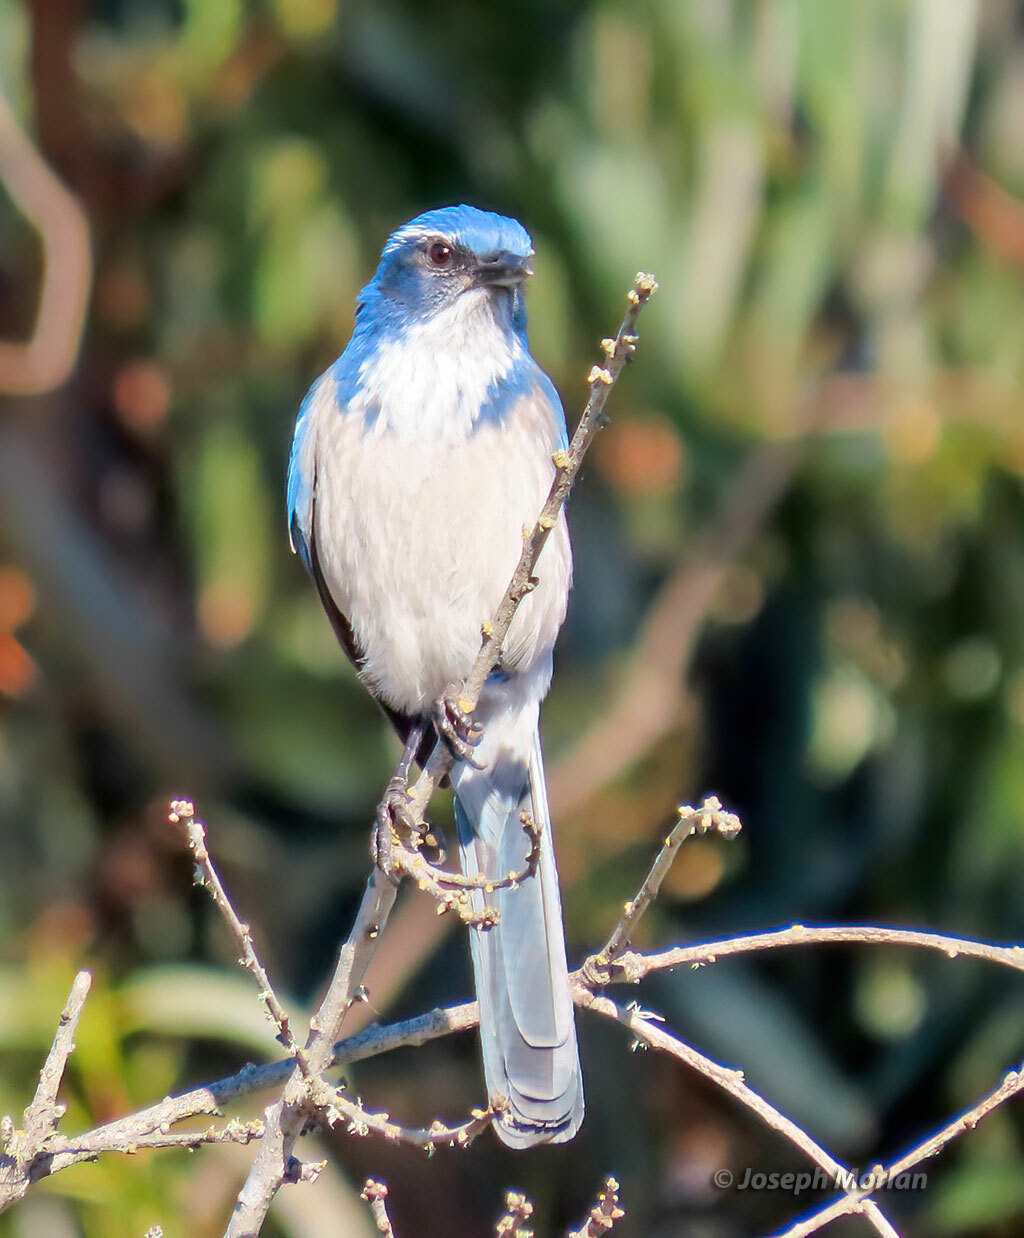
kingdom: Animalia
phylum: Chordata
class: Aves
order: Passeriformes
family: Corvidae
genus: Aphelocoma
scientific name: Aphelocoma californica
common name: California scrub-jay
